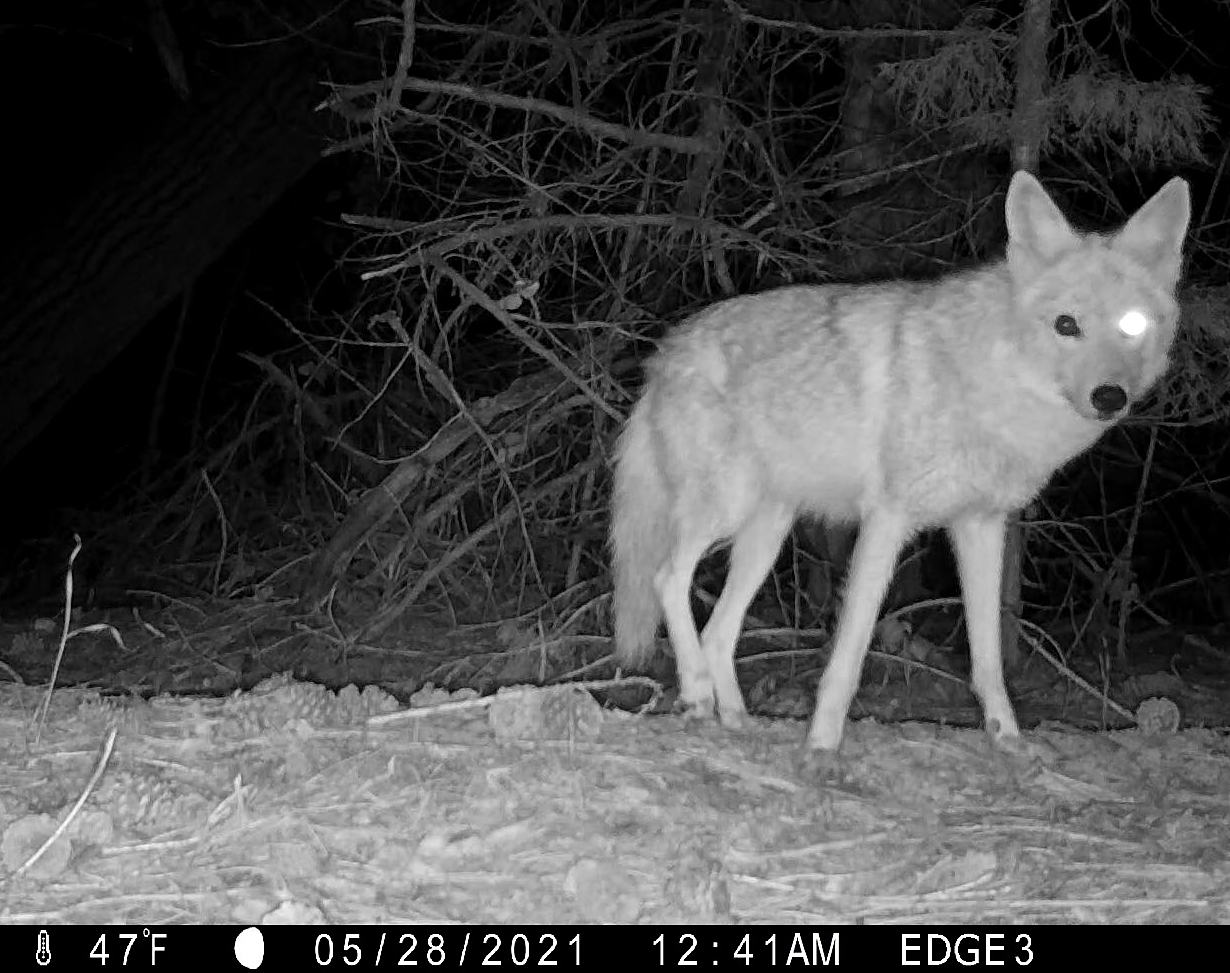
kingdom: Animalia
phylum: Chordata
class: Mammalia
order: Carnivora
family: Canidae
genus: Canis
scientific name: Canis latrans
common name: Coyote
